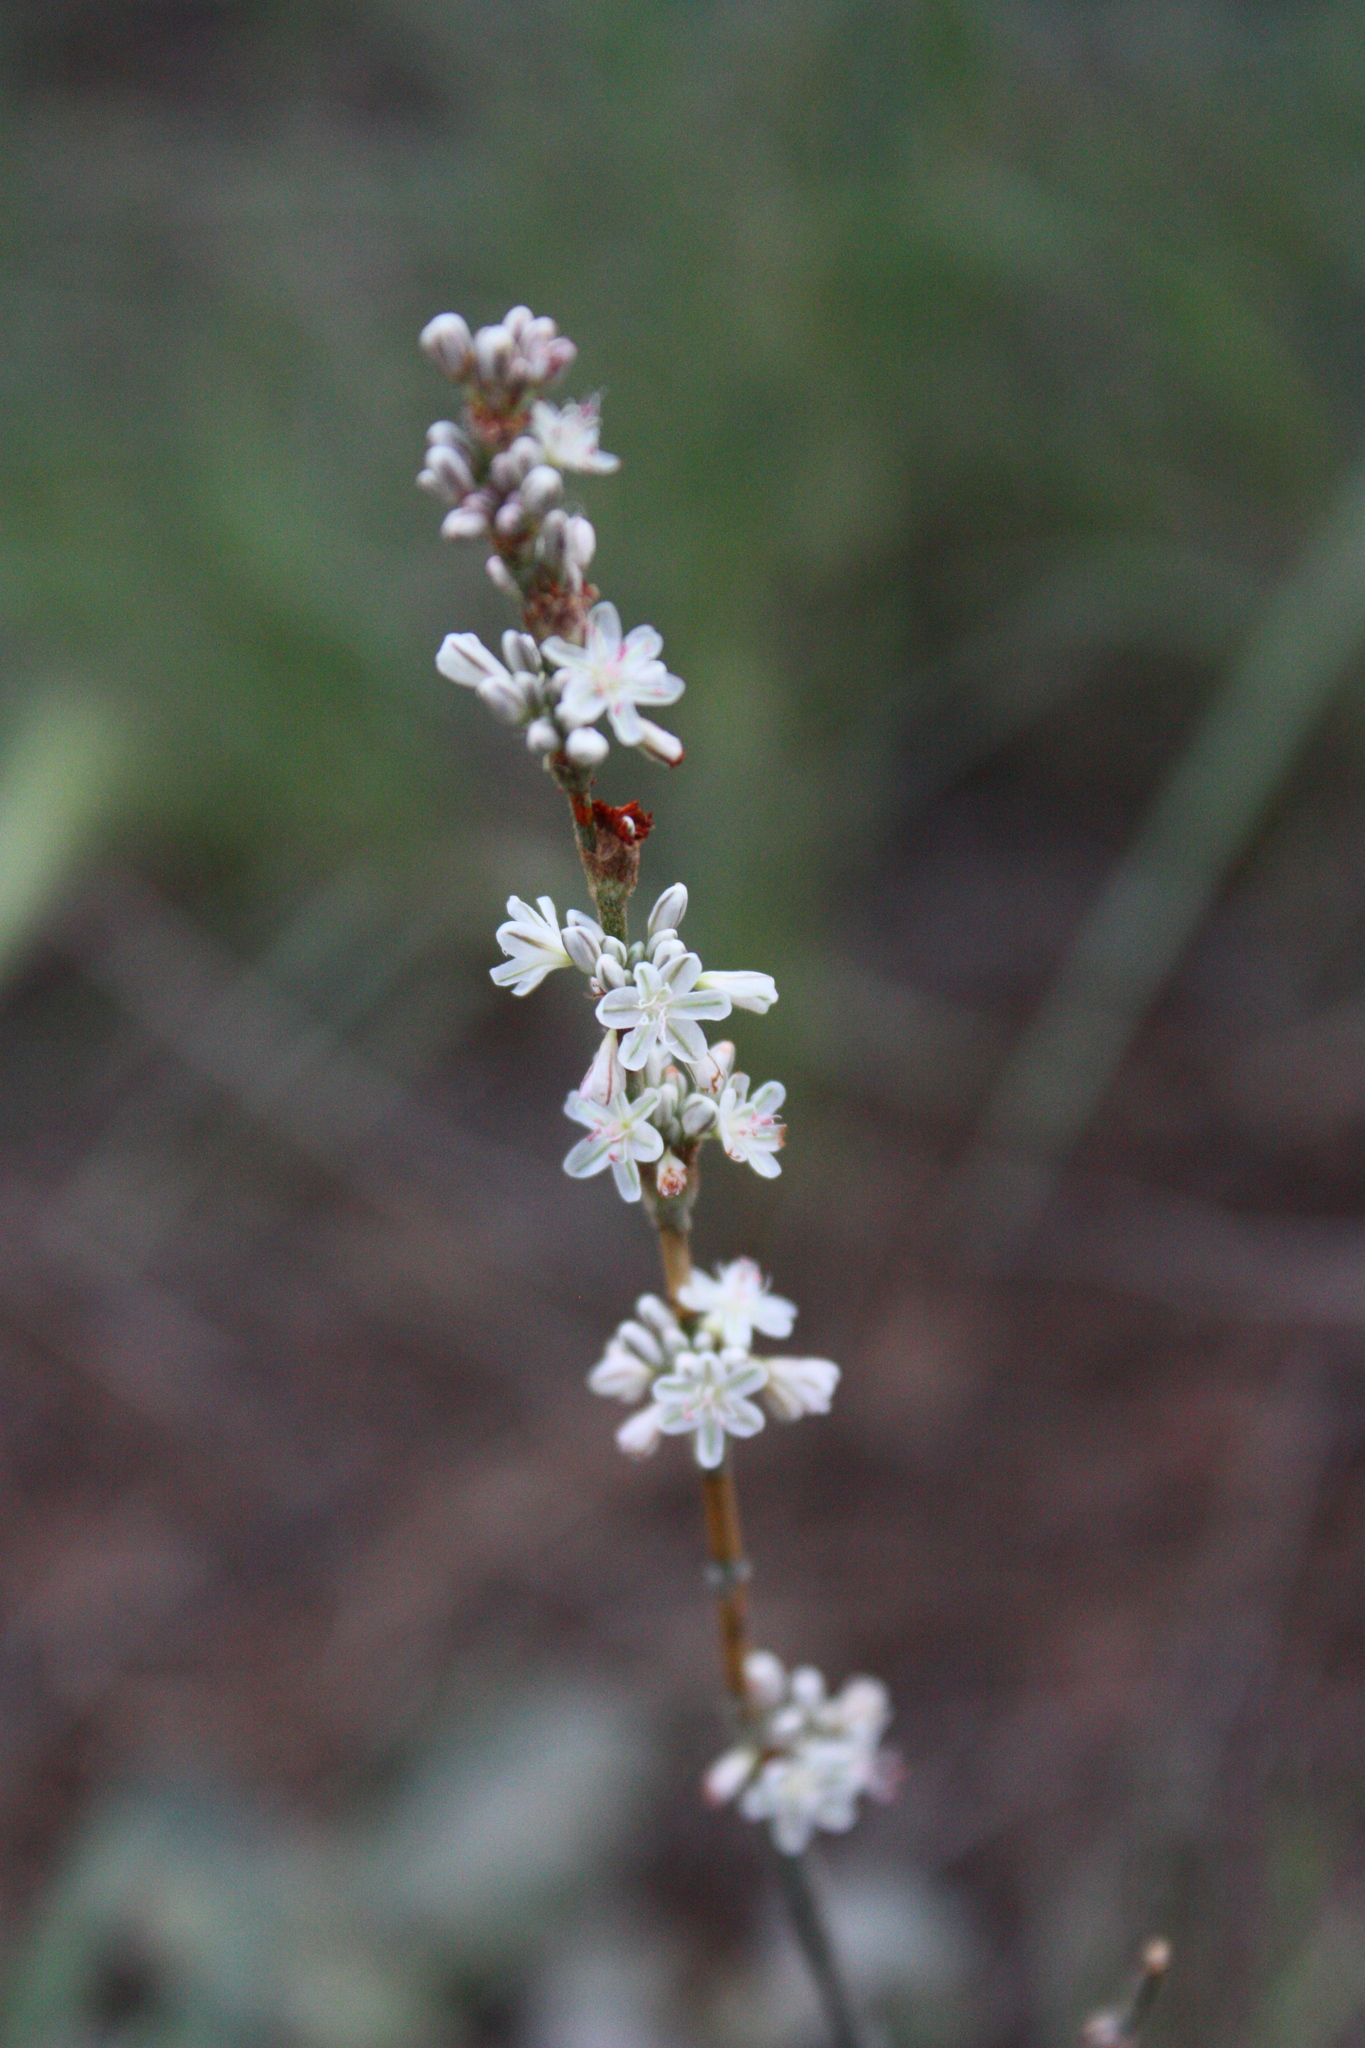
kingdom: Plantae
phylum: Tracheophyta
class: Magnoliopsida
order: Caryophyllales
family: Polygonaceae
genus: Eriogonum
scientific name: Eriogonum racemosum
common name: Redroot wild buckwheat
